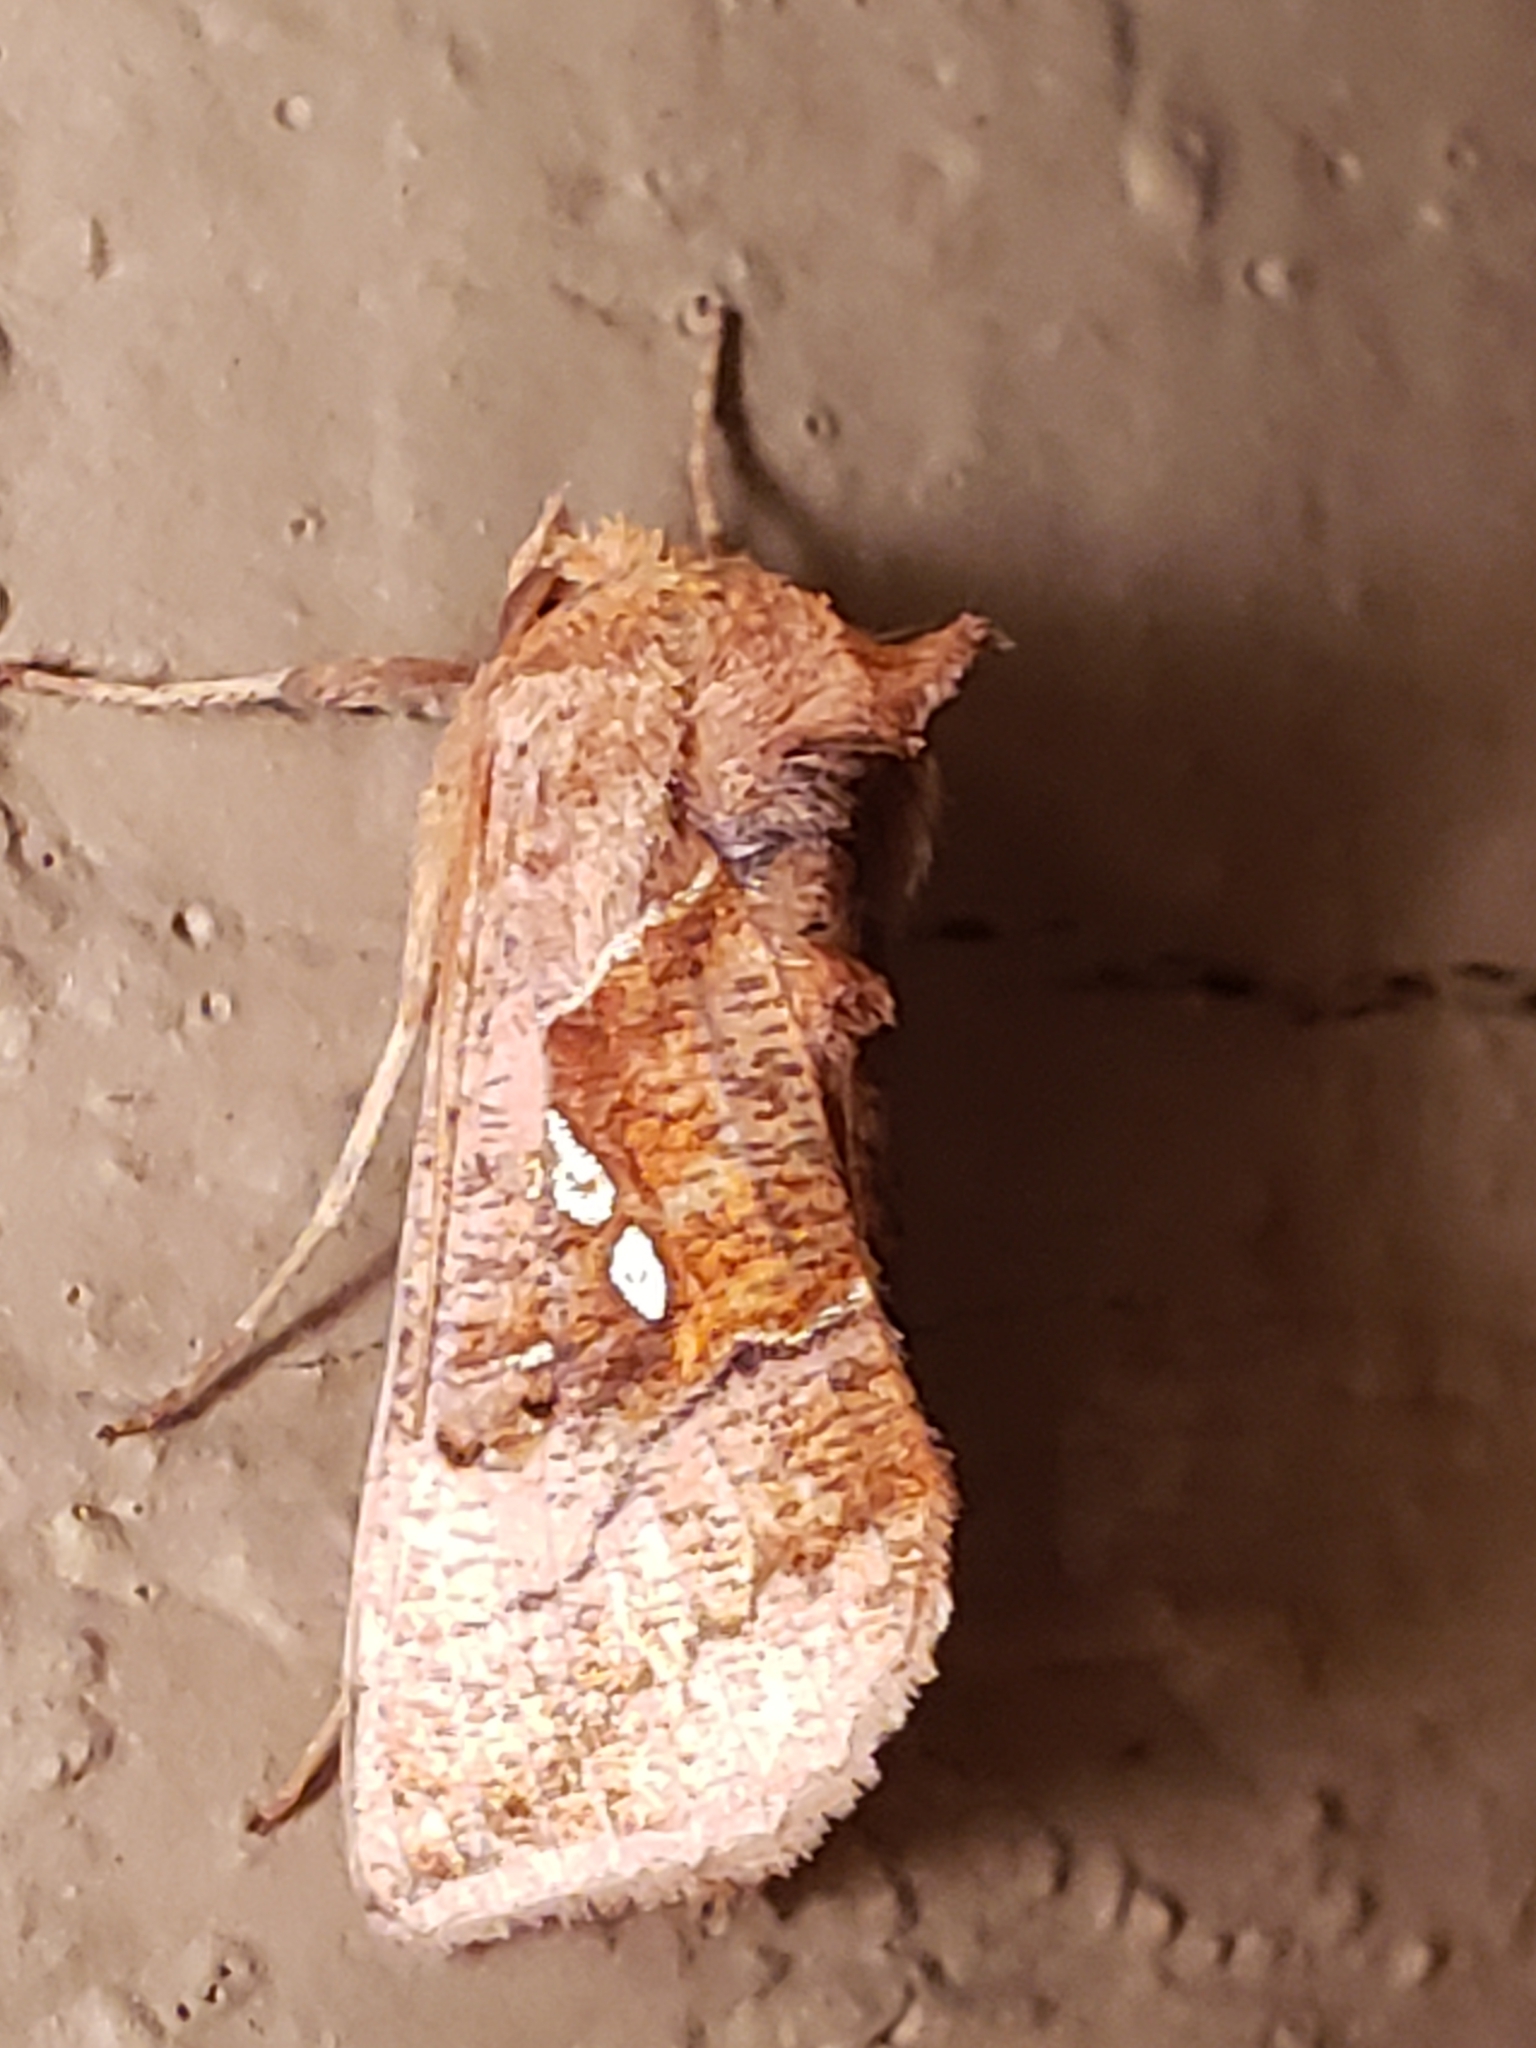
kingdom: Animalia
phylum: Arthropoda
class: Insecta
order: Lepidoptera
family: Noctuidae
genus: Enigmogramma
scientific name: Enigmogramma basigera
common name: Pink-washed looper moth
